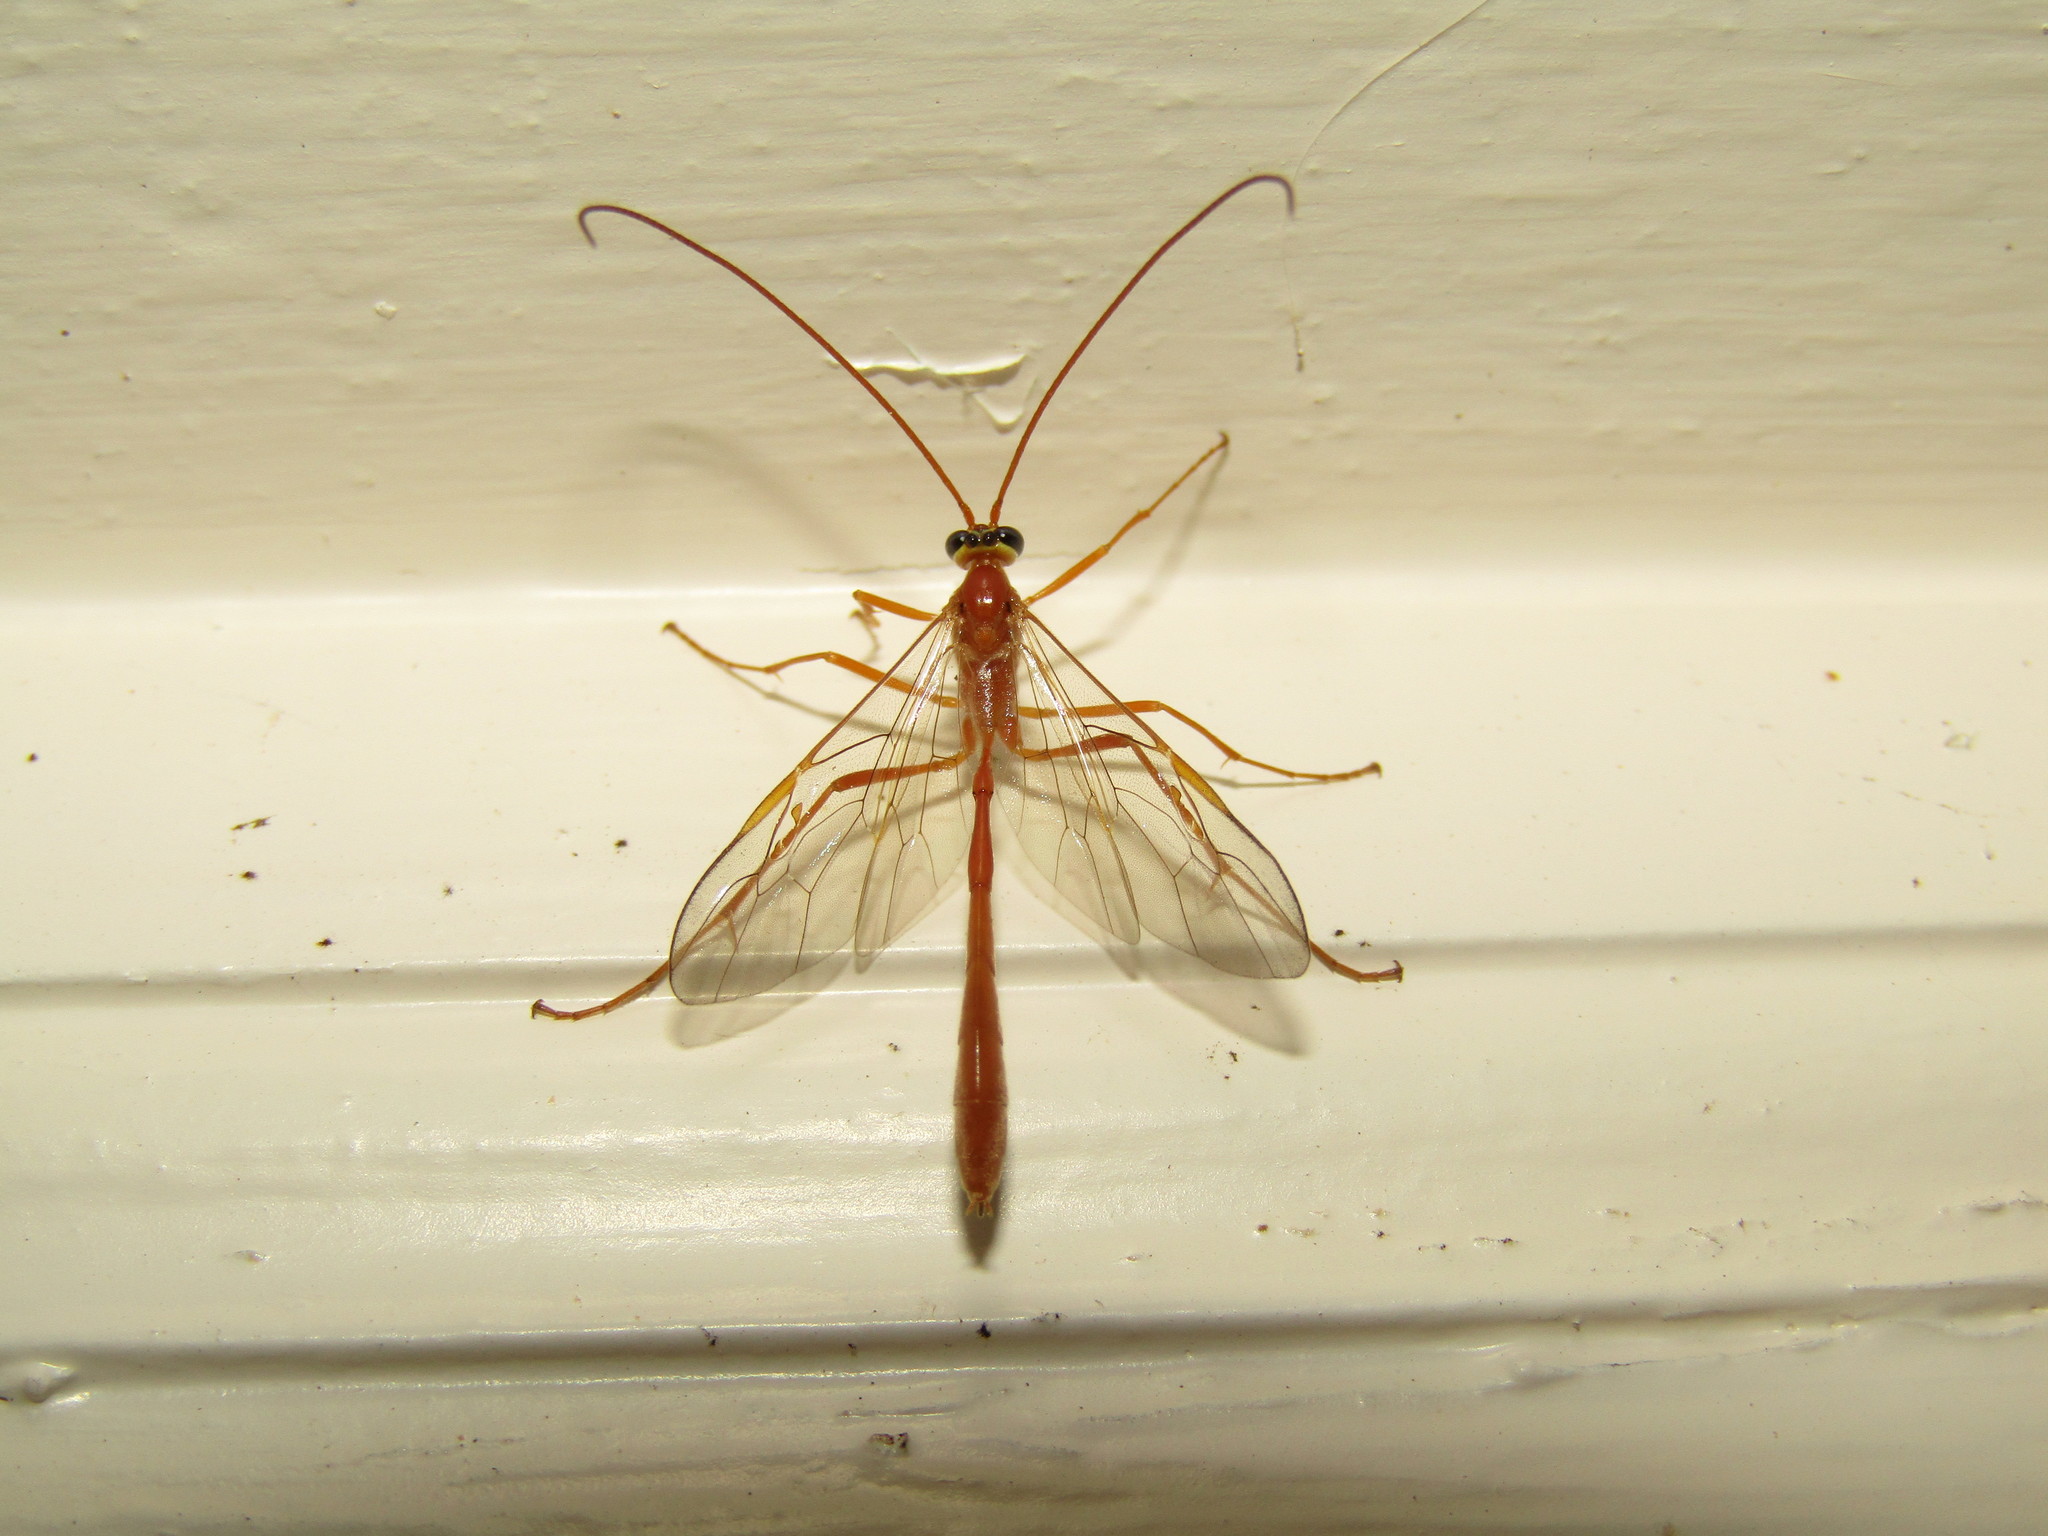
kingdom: Animalia
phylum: Arthropoda
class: Insecta
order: Hymenoptera
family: Ichneumonidae
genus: Enicospilus
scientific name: Enicospilus purgatus
